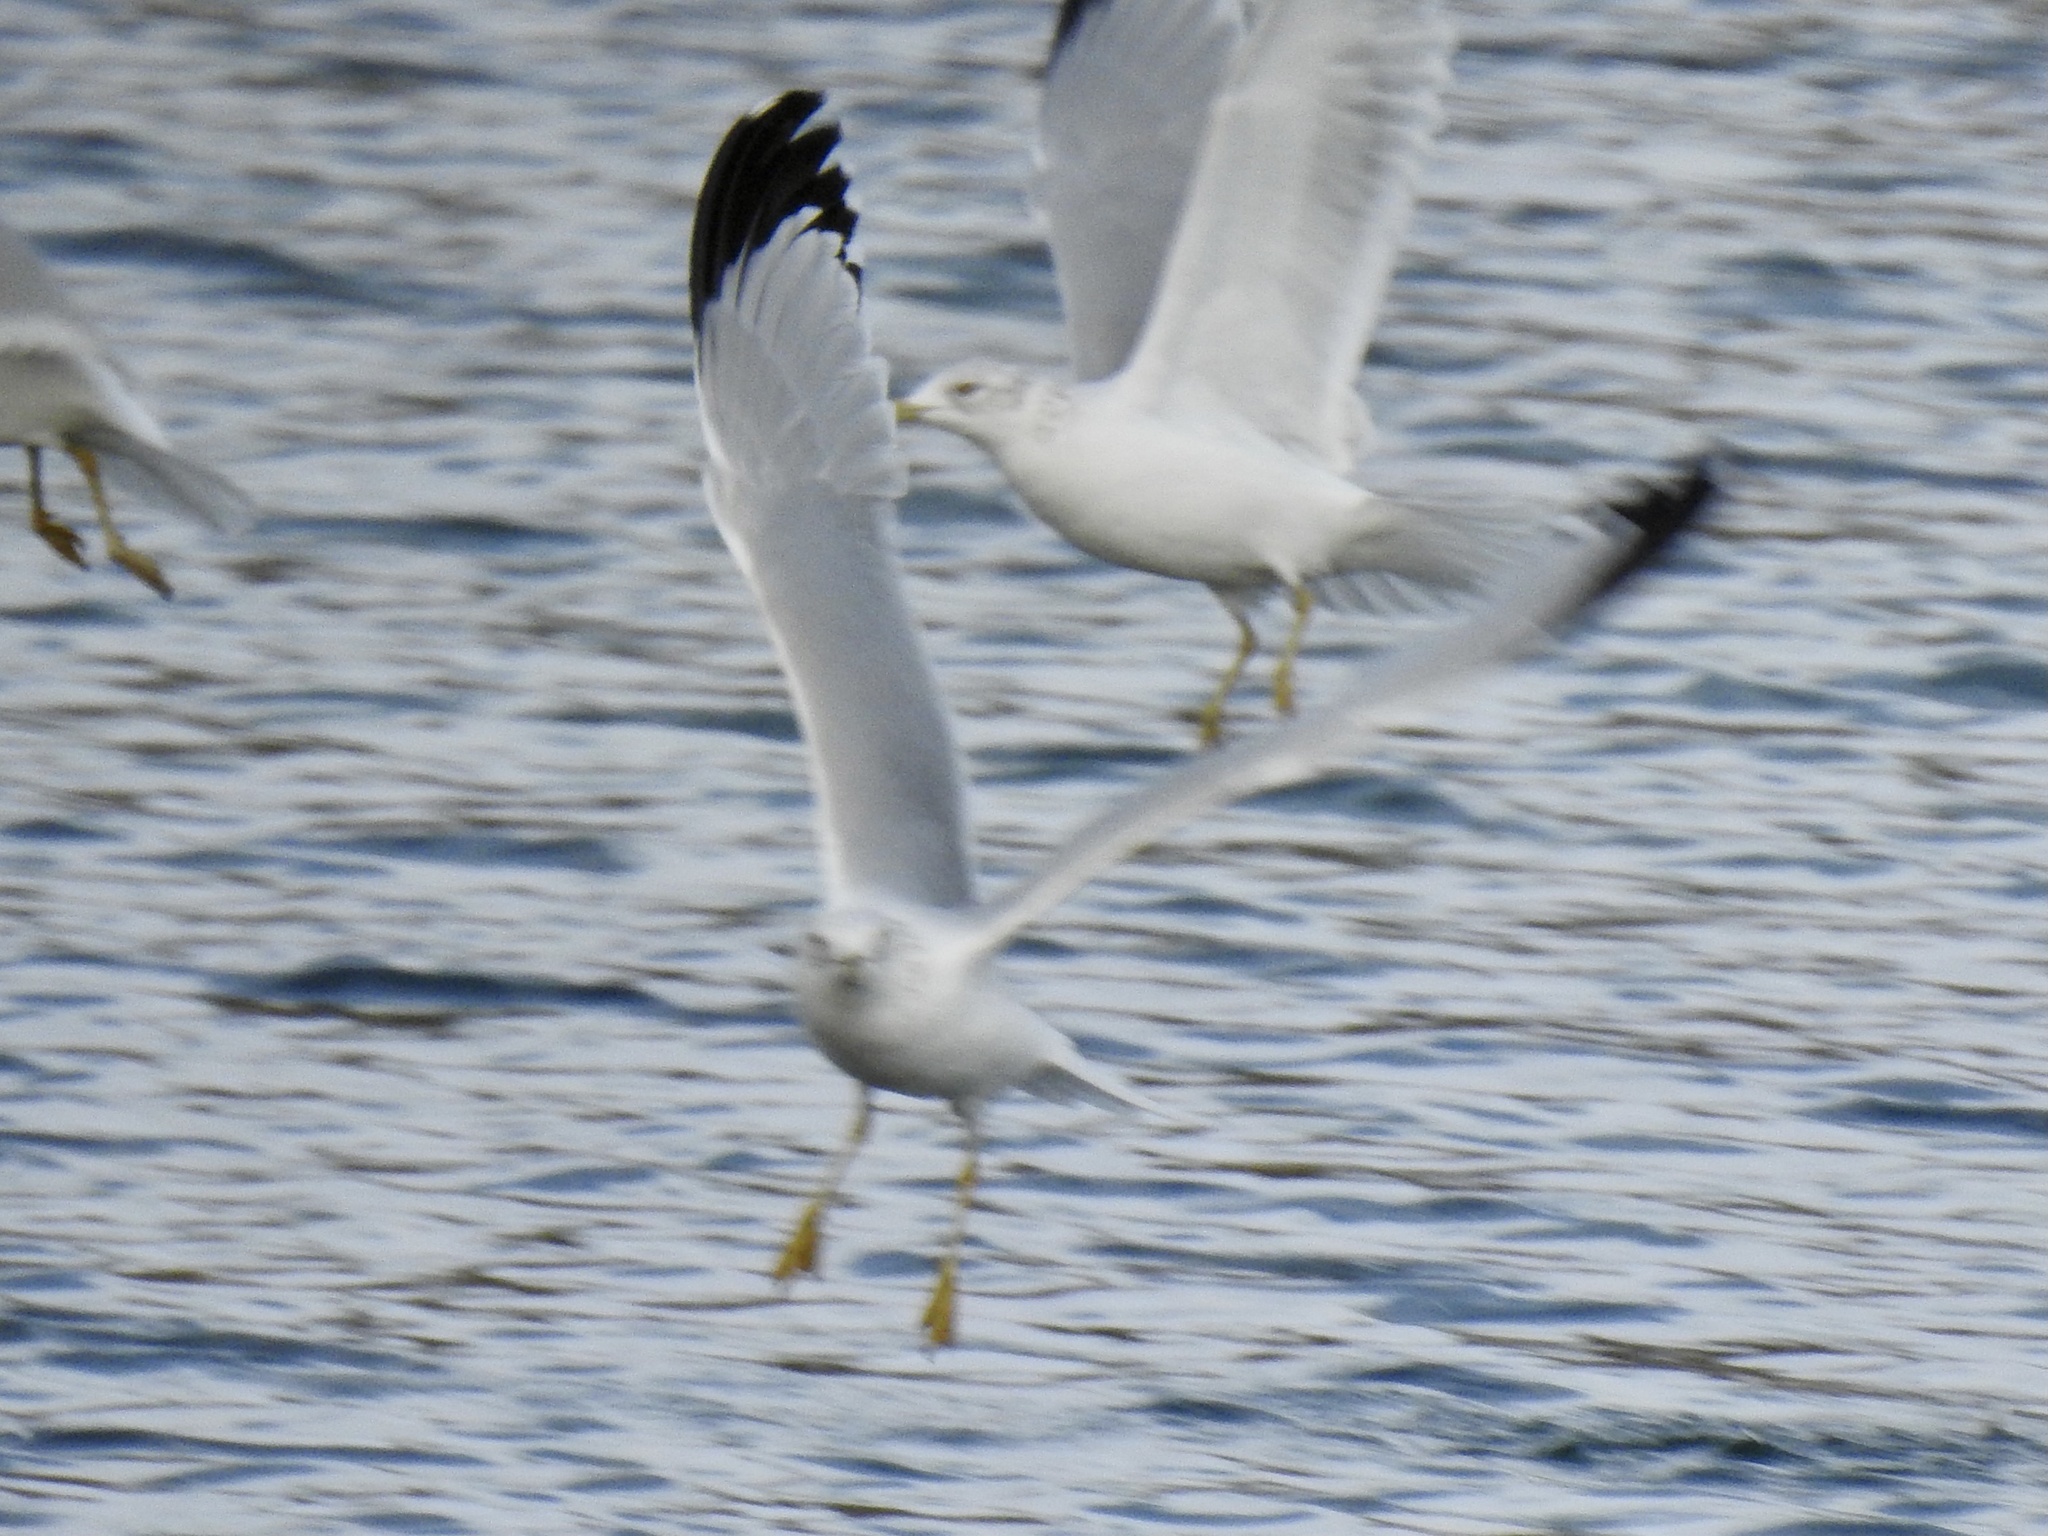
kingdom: Animalia
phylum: Chordata
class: Aves
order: Charadriiformes
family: Laridae
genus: Larus
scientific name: Larus delawarensis
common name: Ring-billed gull
